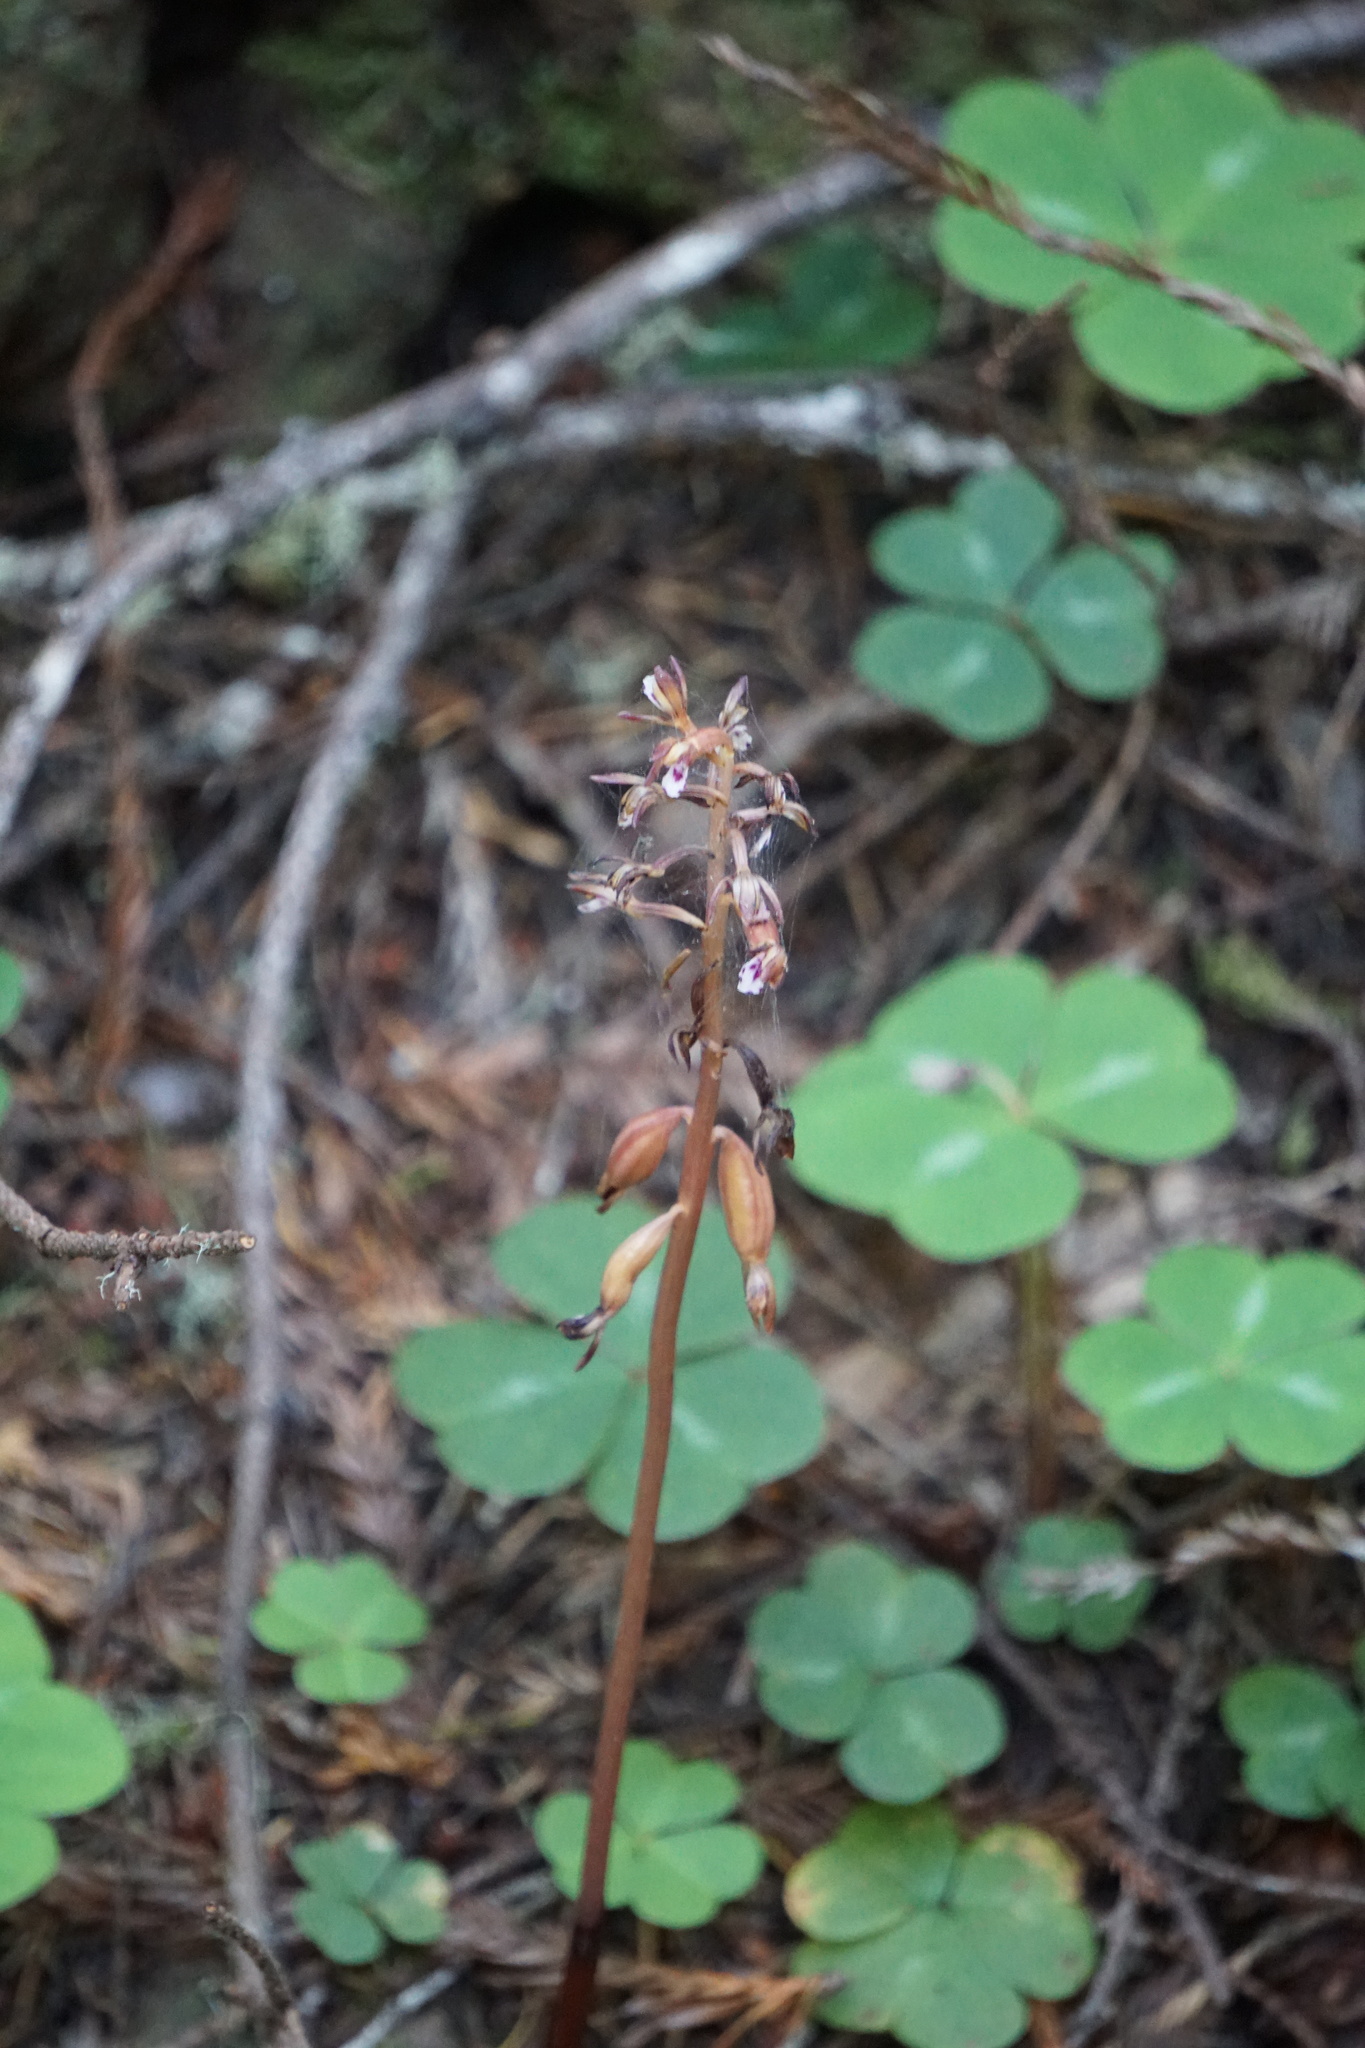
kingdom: Plantae
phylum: Tracheophyta
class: Liliopsida
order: Asparagales
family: Orchidaceae
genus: Corallorhiza
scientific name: Corallorhiza maculata
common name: Spotted coralroot
